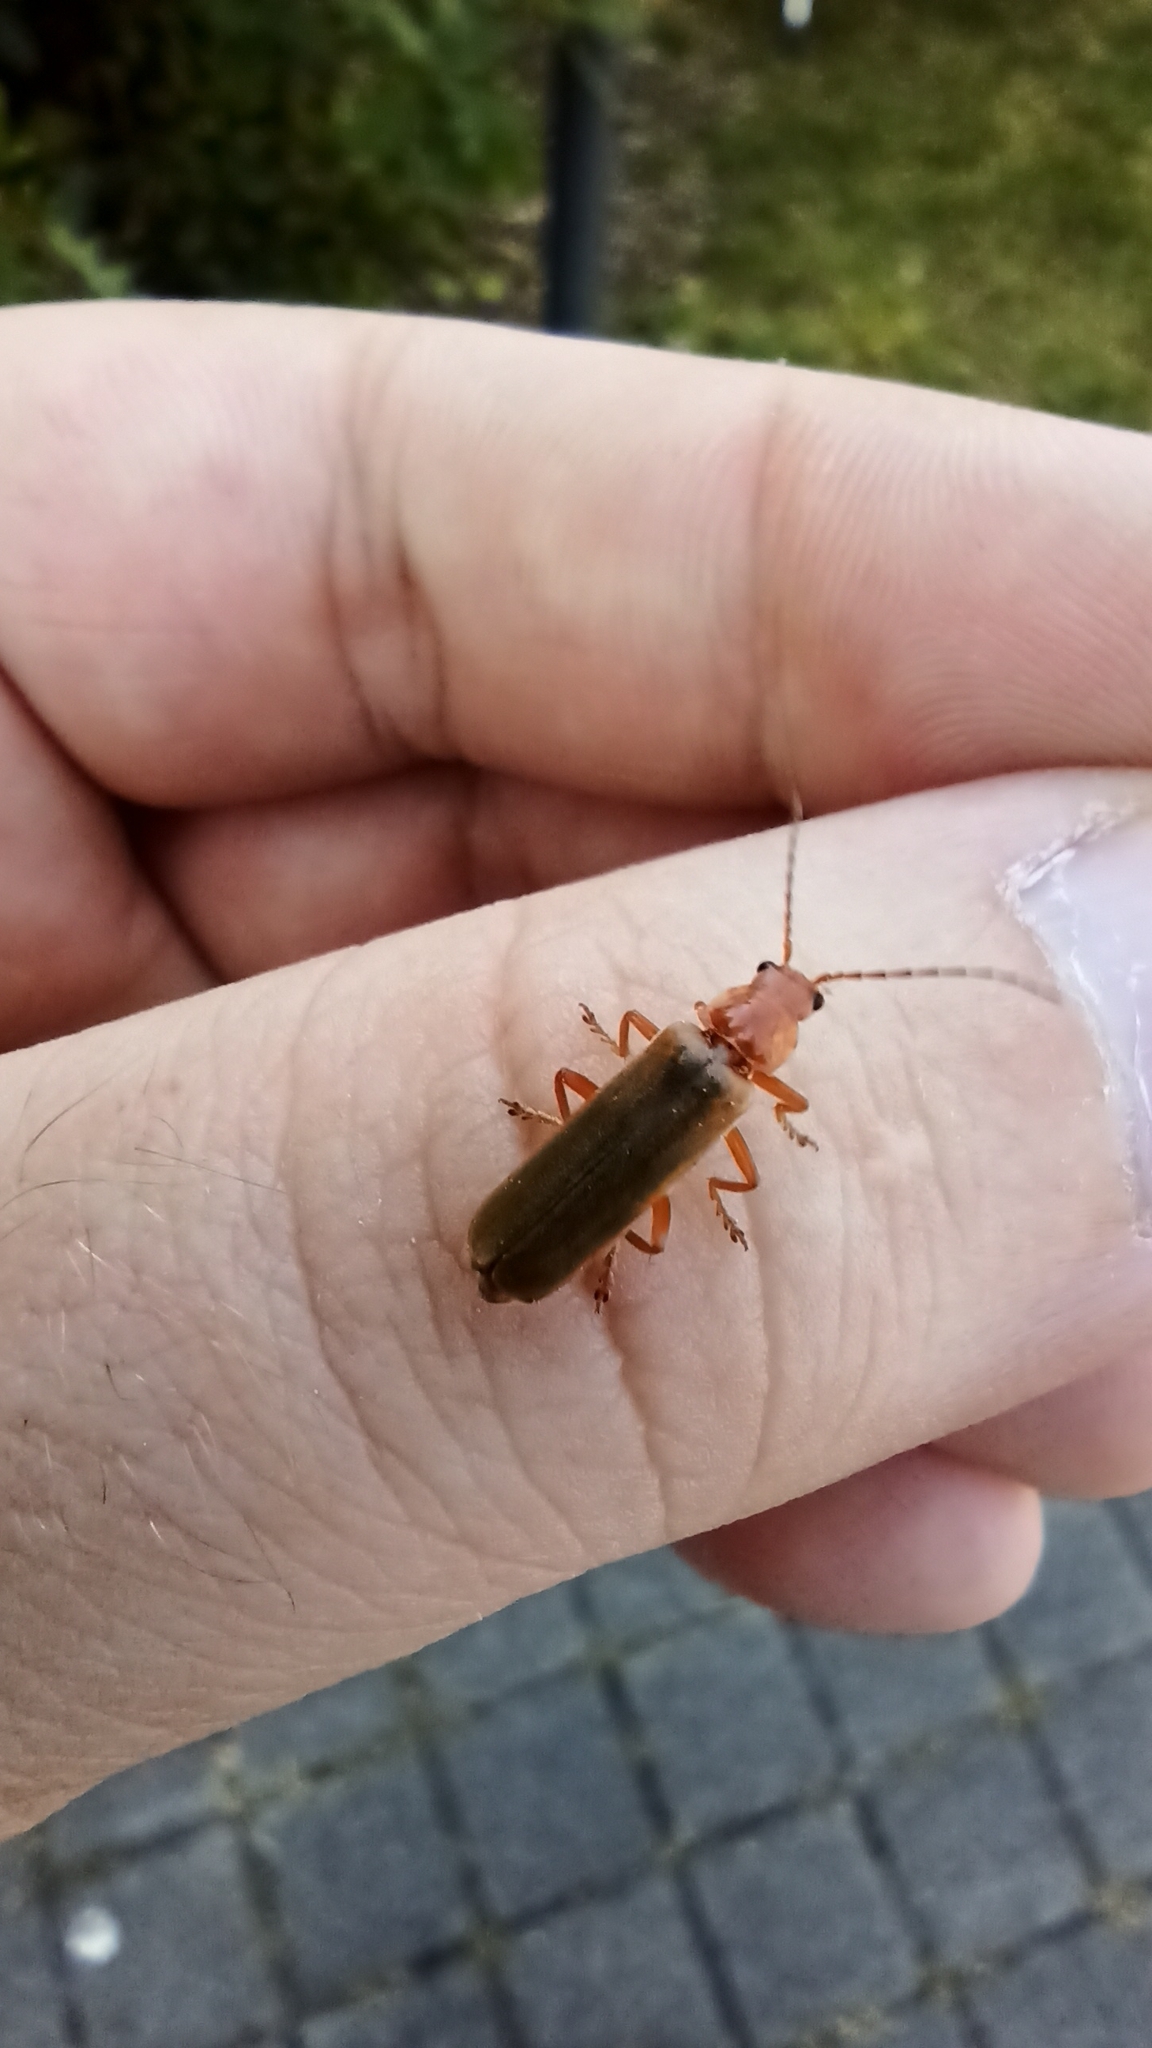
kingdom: Animalia
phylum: Arthropoda
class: Insecta
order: Coleoptera
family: Cantharidae
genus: Cantharis
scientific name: Cantharis rufa
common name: Red-spotted soldier beetle
